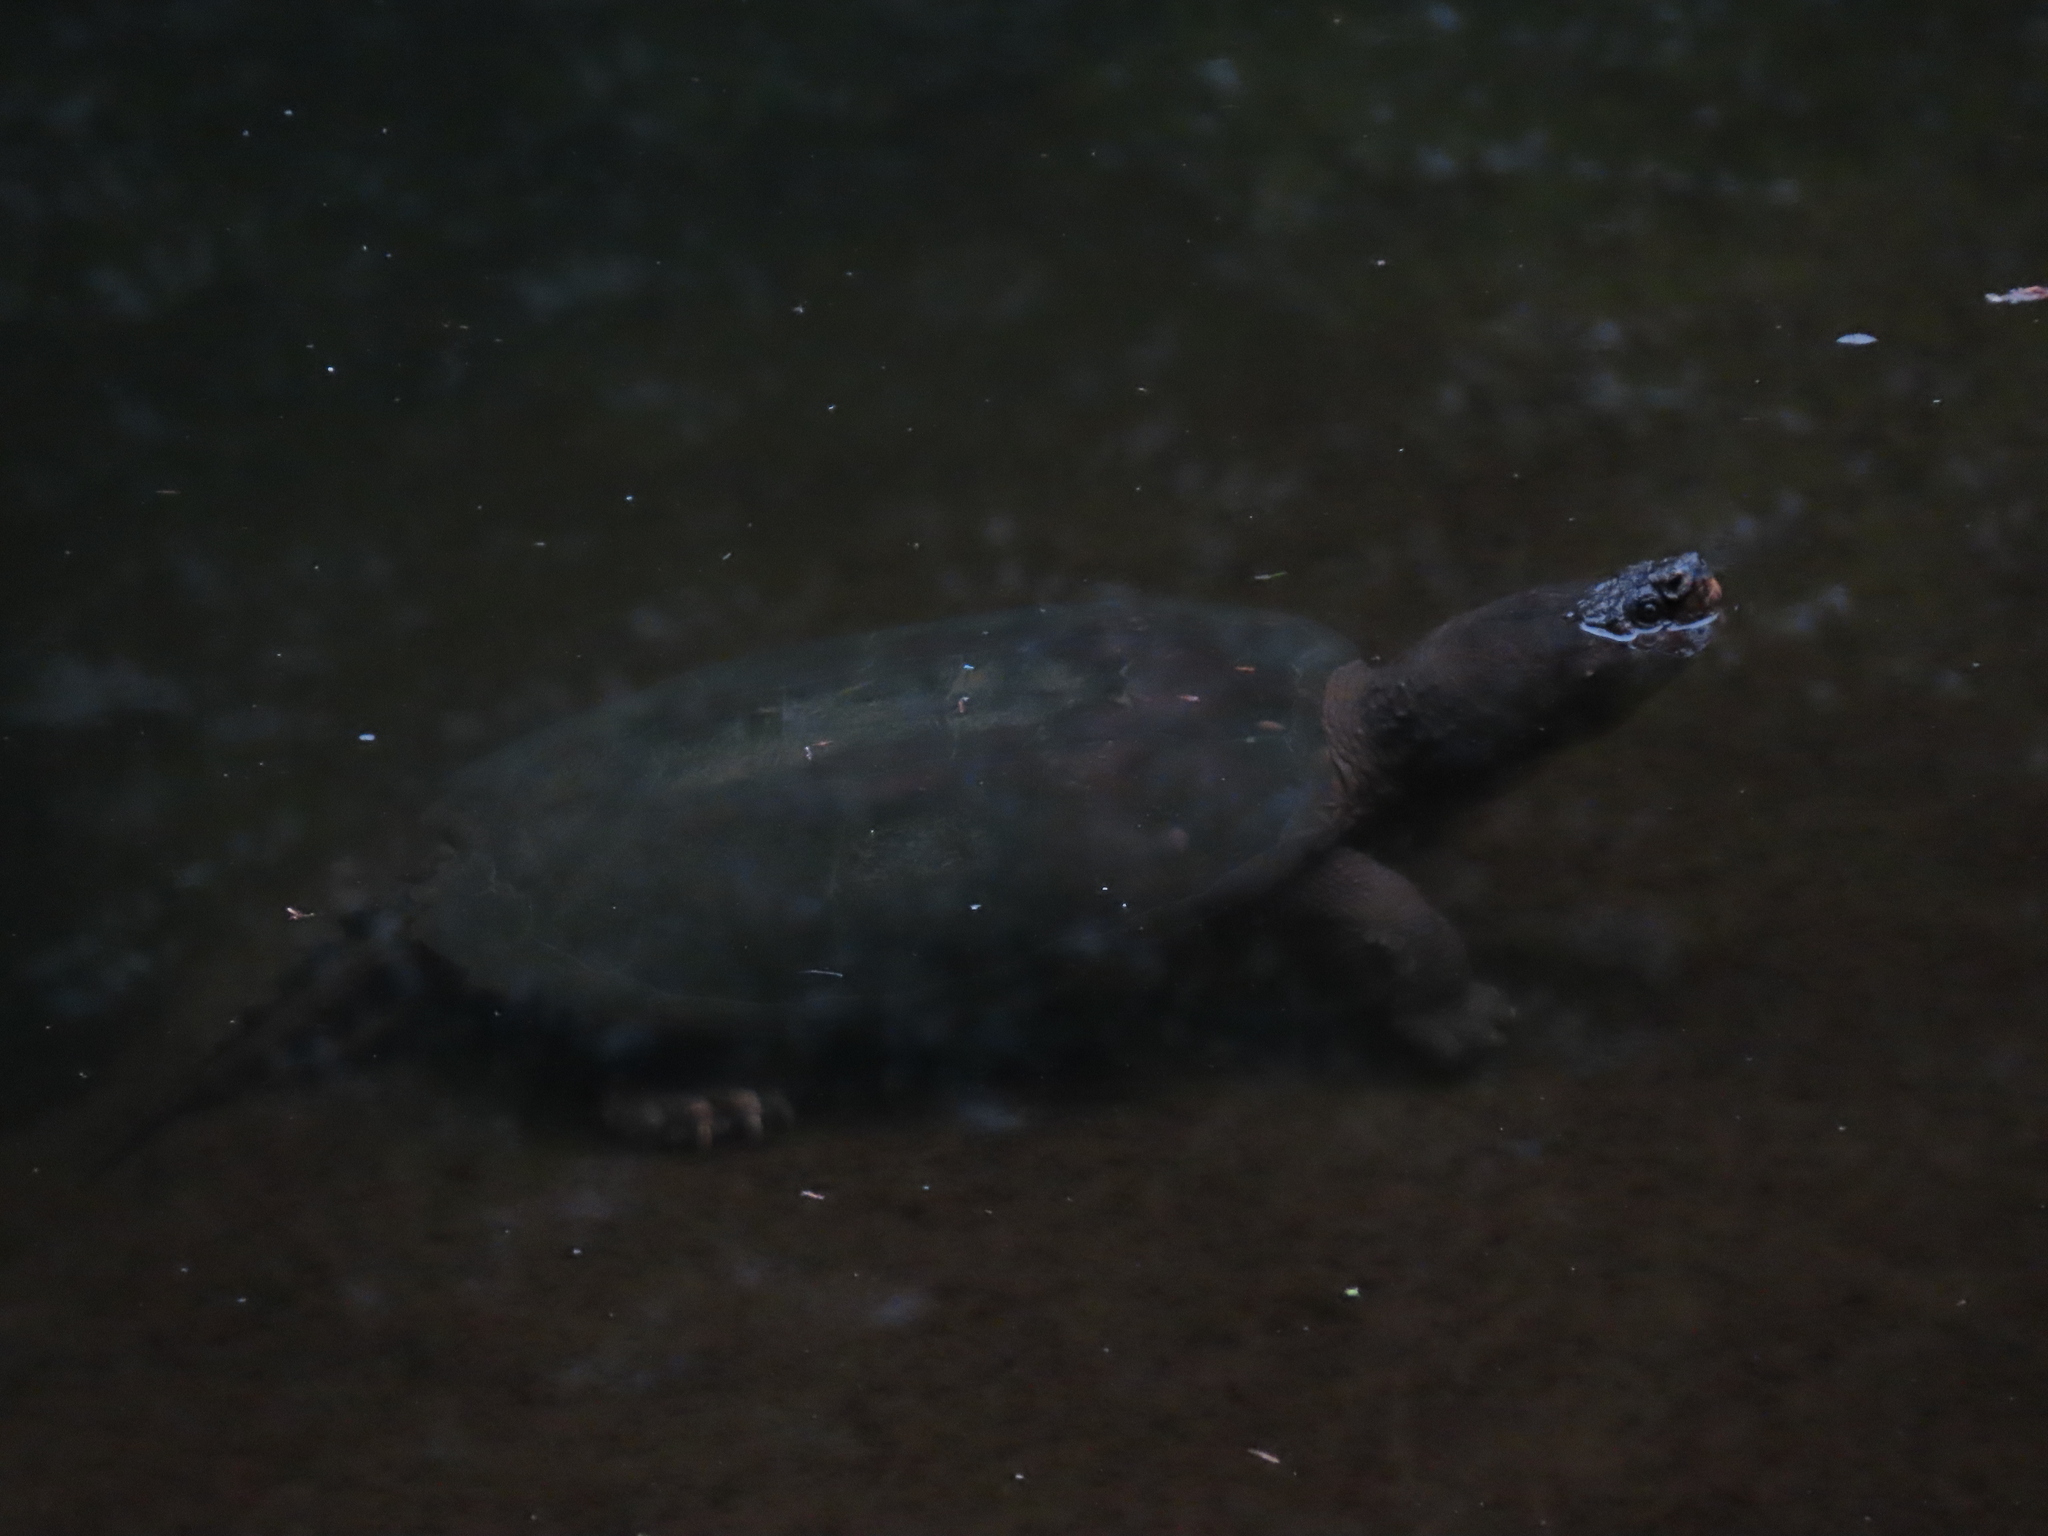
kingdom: Animalia
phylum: Chordata
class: Testudines
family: Chelydridae
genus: Chelydra
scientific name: Chelydra serpentina
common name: Common snapping turtle
